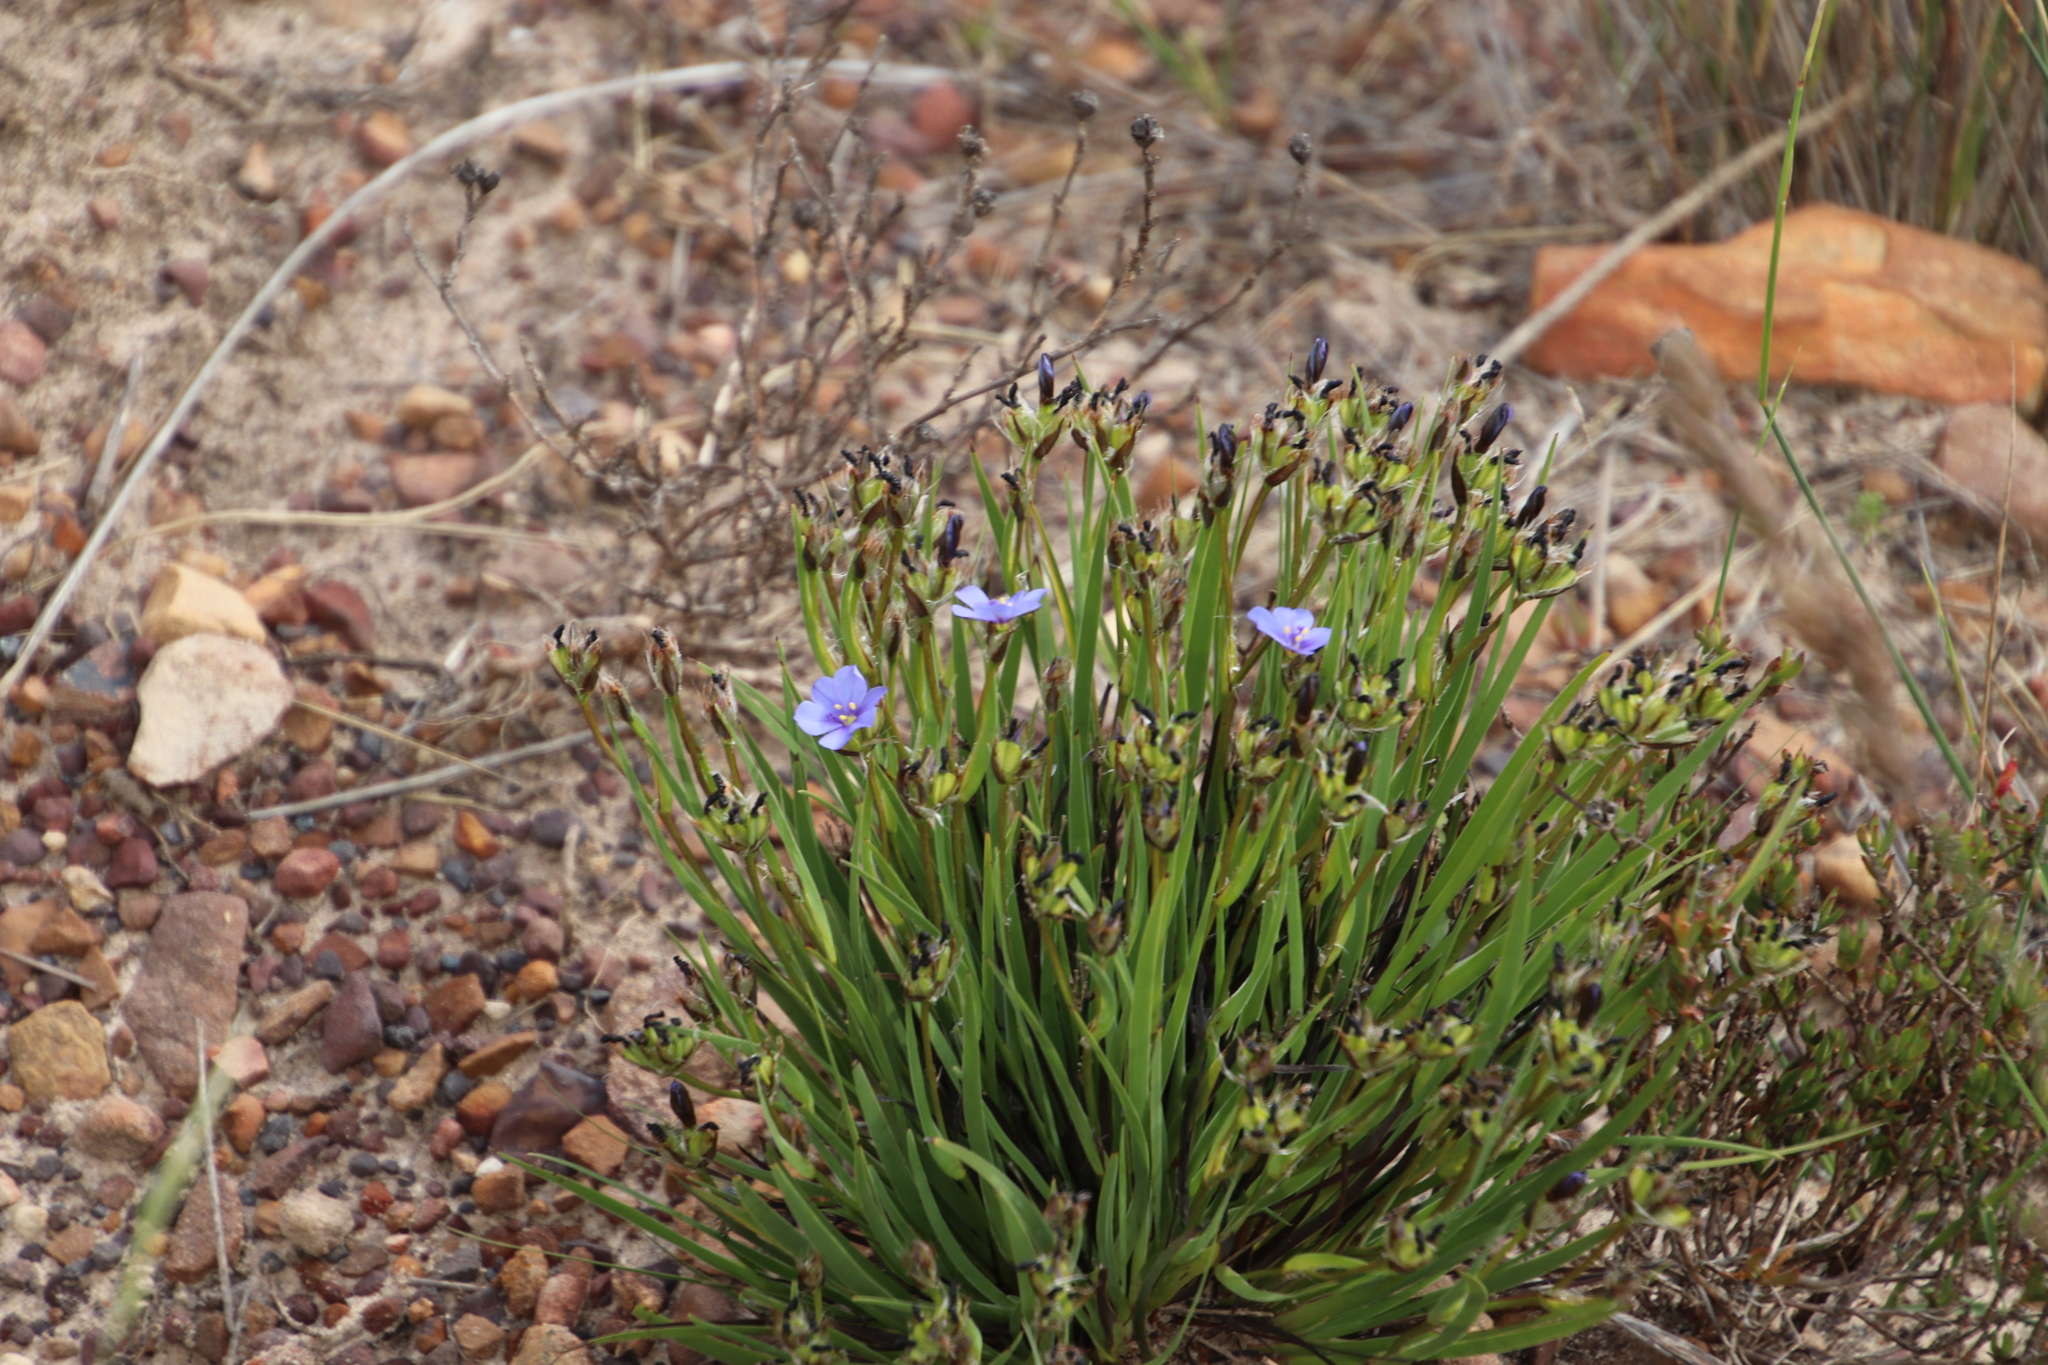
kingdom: Plantae
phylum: Tracheophyta
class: Liliopsida
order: Asparagales
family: Iridaceae
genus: Aristea
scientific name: Aristea africana
